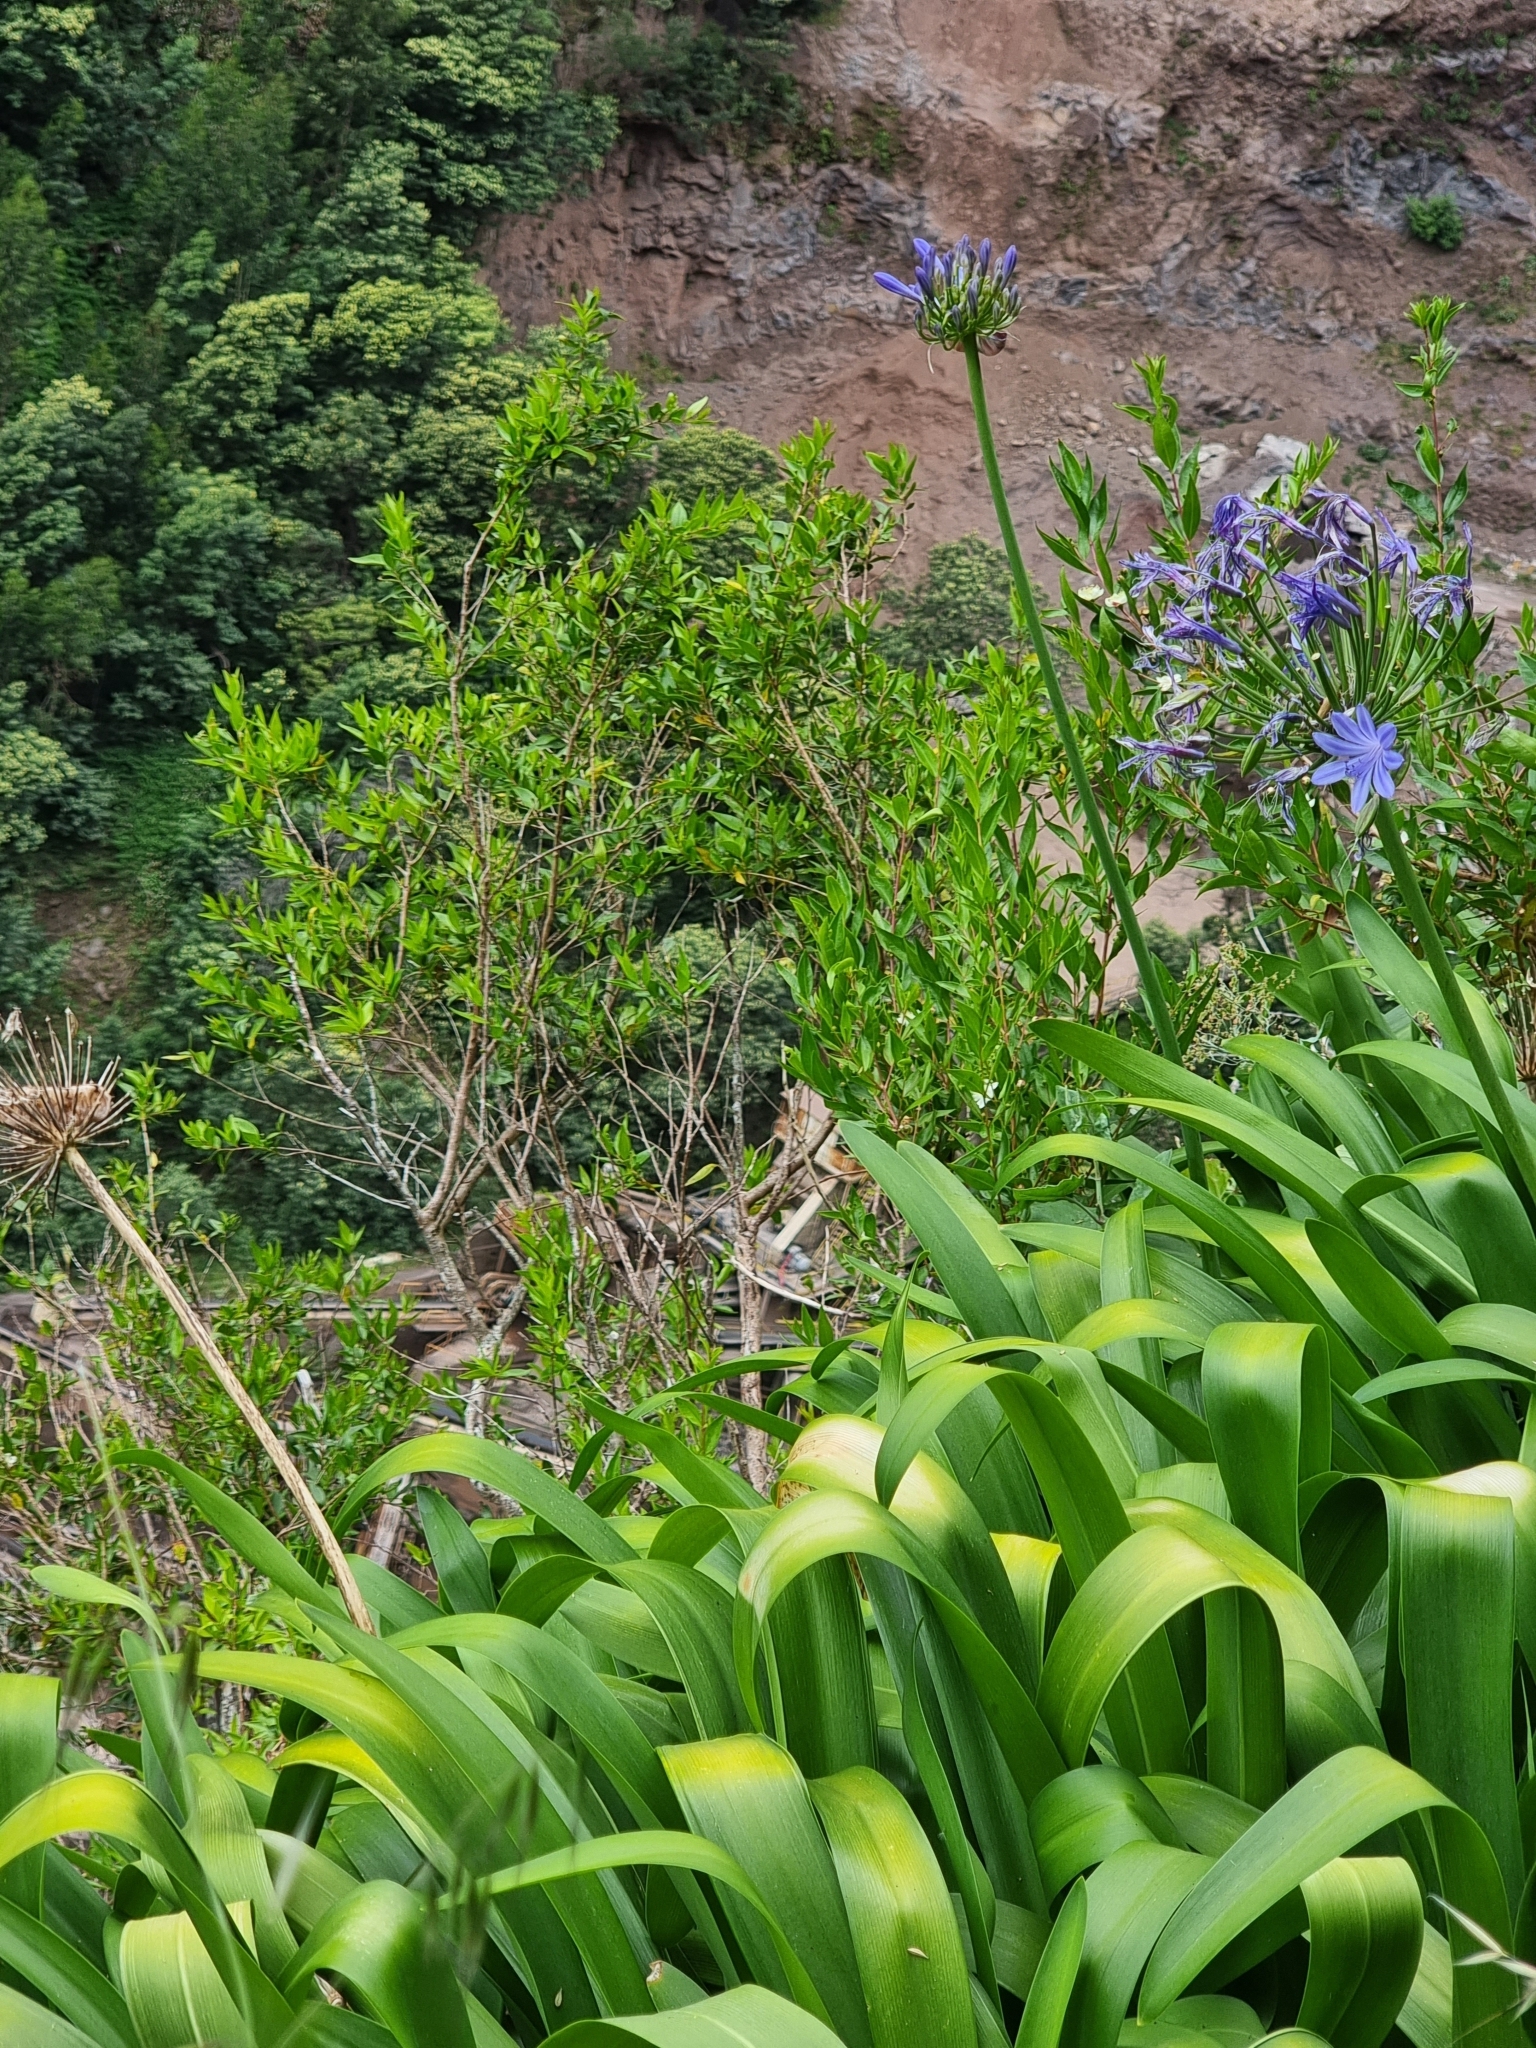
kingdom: Plantae
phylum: Tracheophyta
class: Magnoliopsida
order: Myrtales
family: Myrtaceae
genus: Myrtus
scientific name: Myrtus communis
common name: Myrtle
